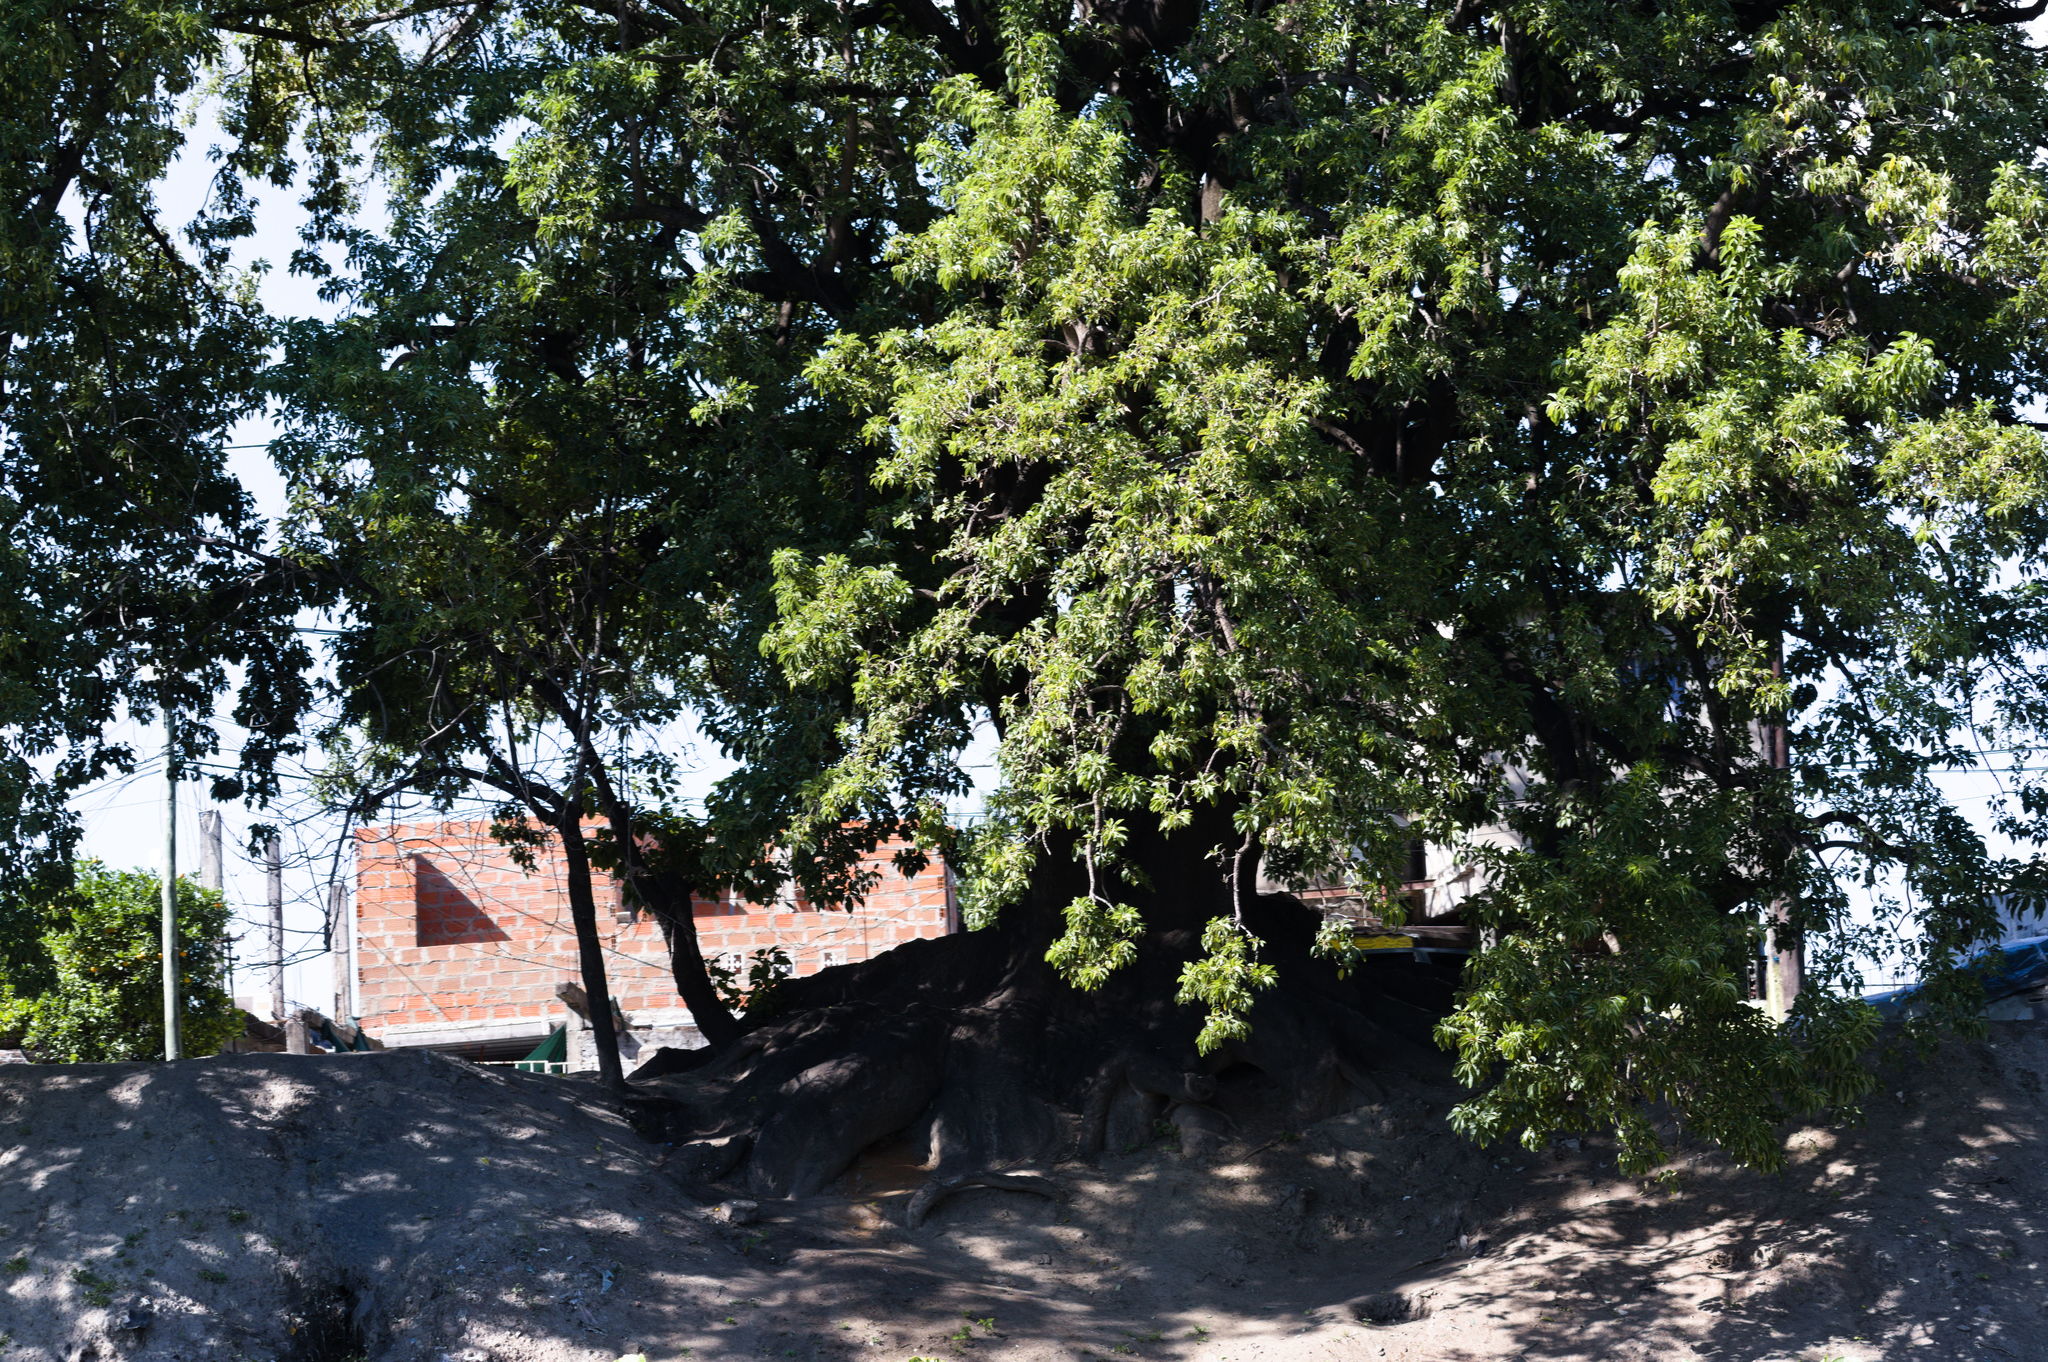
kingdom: Plantae
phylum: Tracheophyta
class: Magnoliopsida
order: Caryophyllales
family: Phytolaccaceae
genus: Phytolacca
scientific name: Phytolacca dioica
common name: Pokeweed
